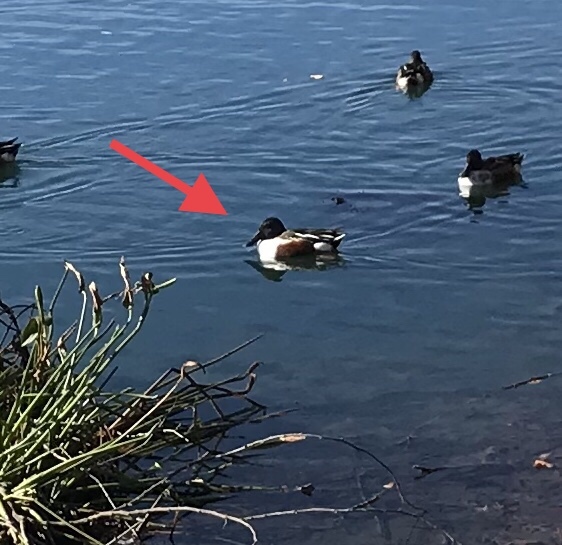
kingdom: Animalia
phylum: Chordata
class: Aves
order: Anseriformes
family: Anatidae
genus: Spatula
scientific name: Spatula clypeata
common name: Northern shoveler
